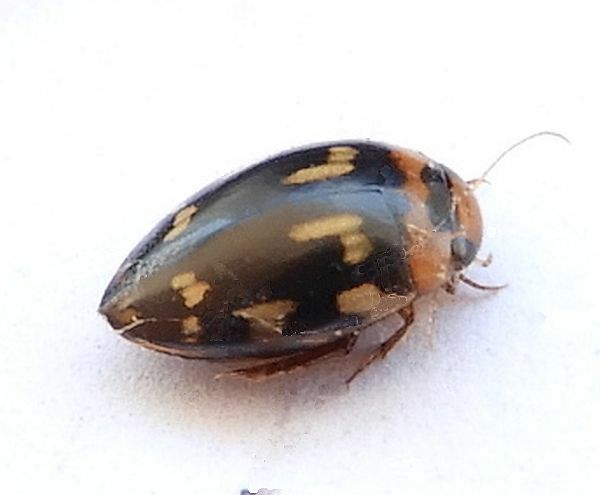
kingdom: Animalia
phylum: Arthropoda
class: Insecta
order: Coleoptera
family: Dytiscidae
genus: Laccophilus
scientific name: Laccophilus horni
